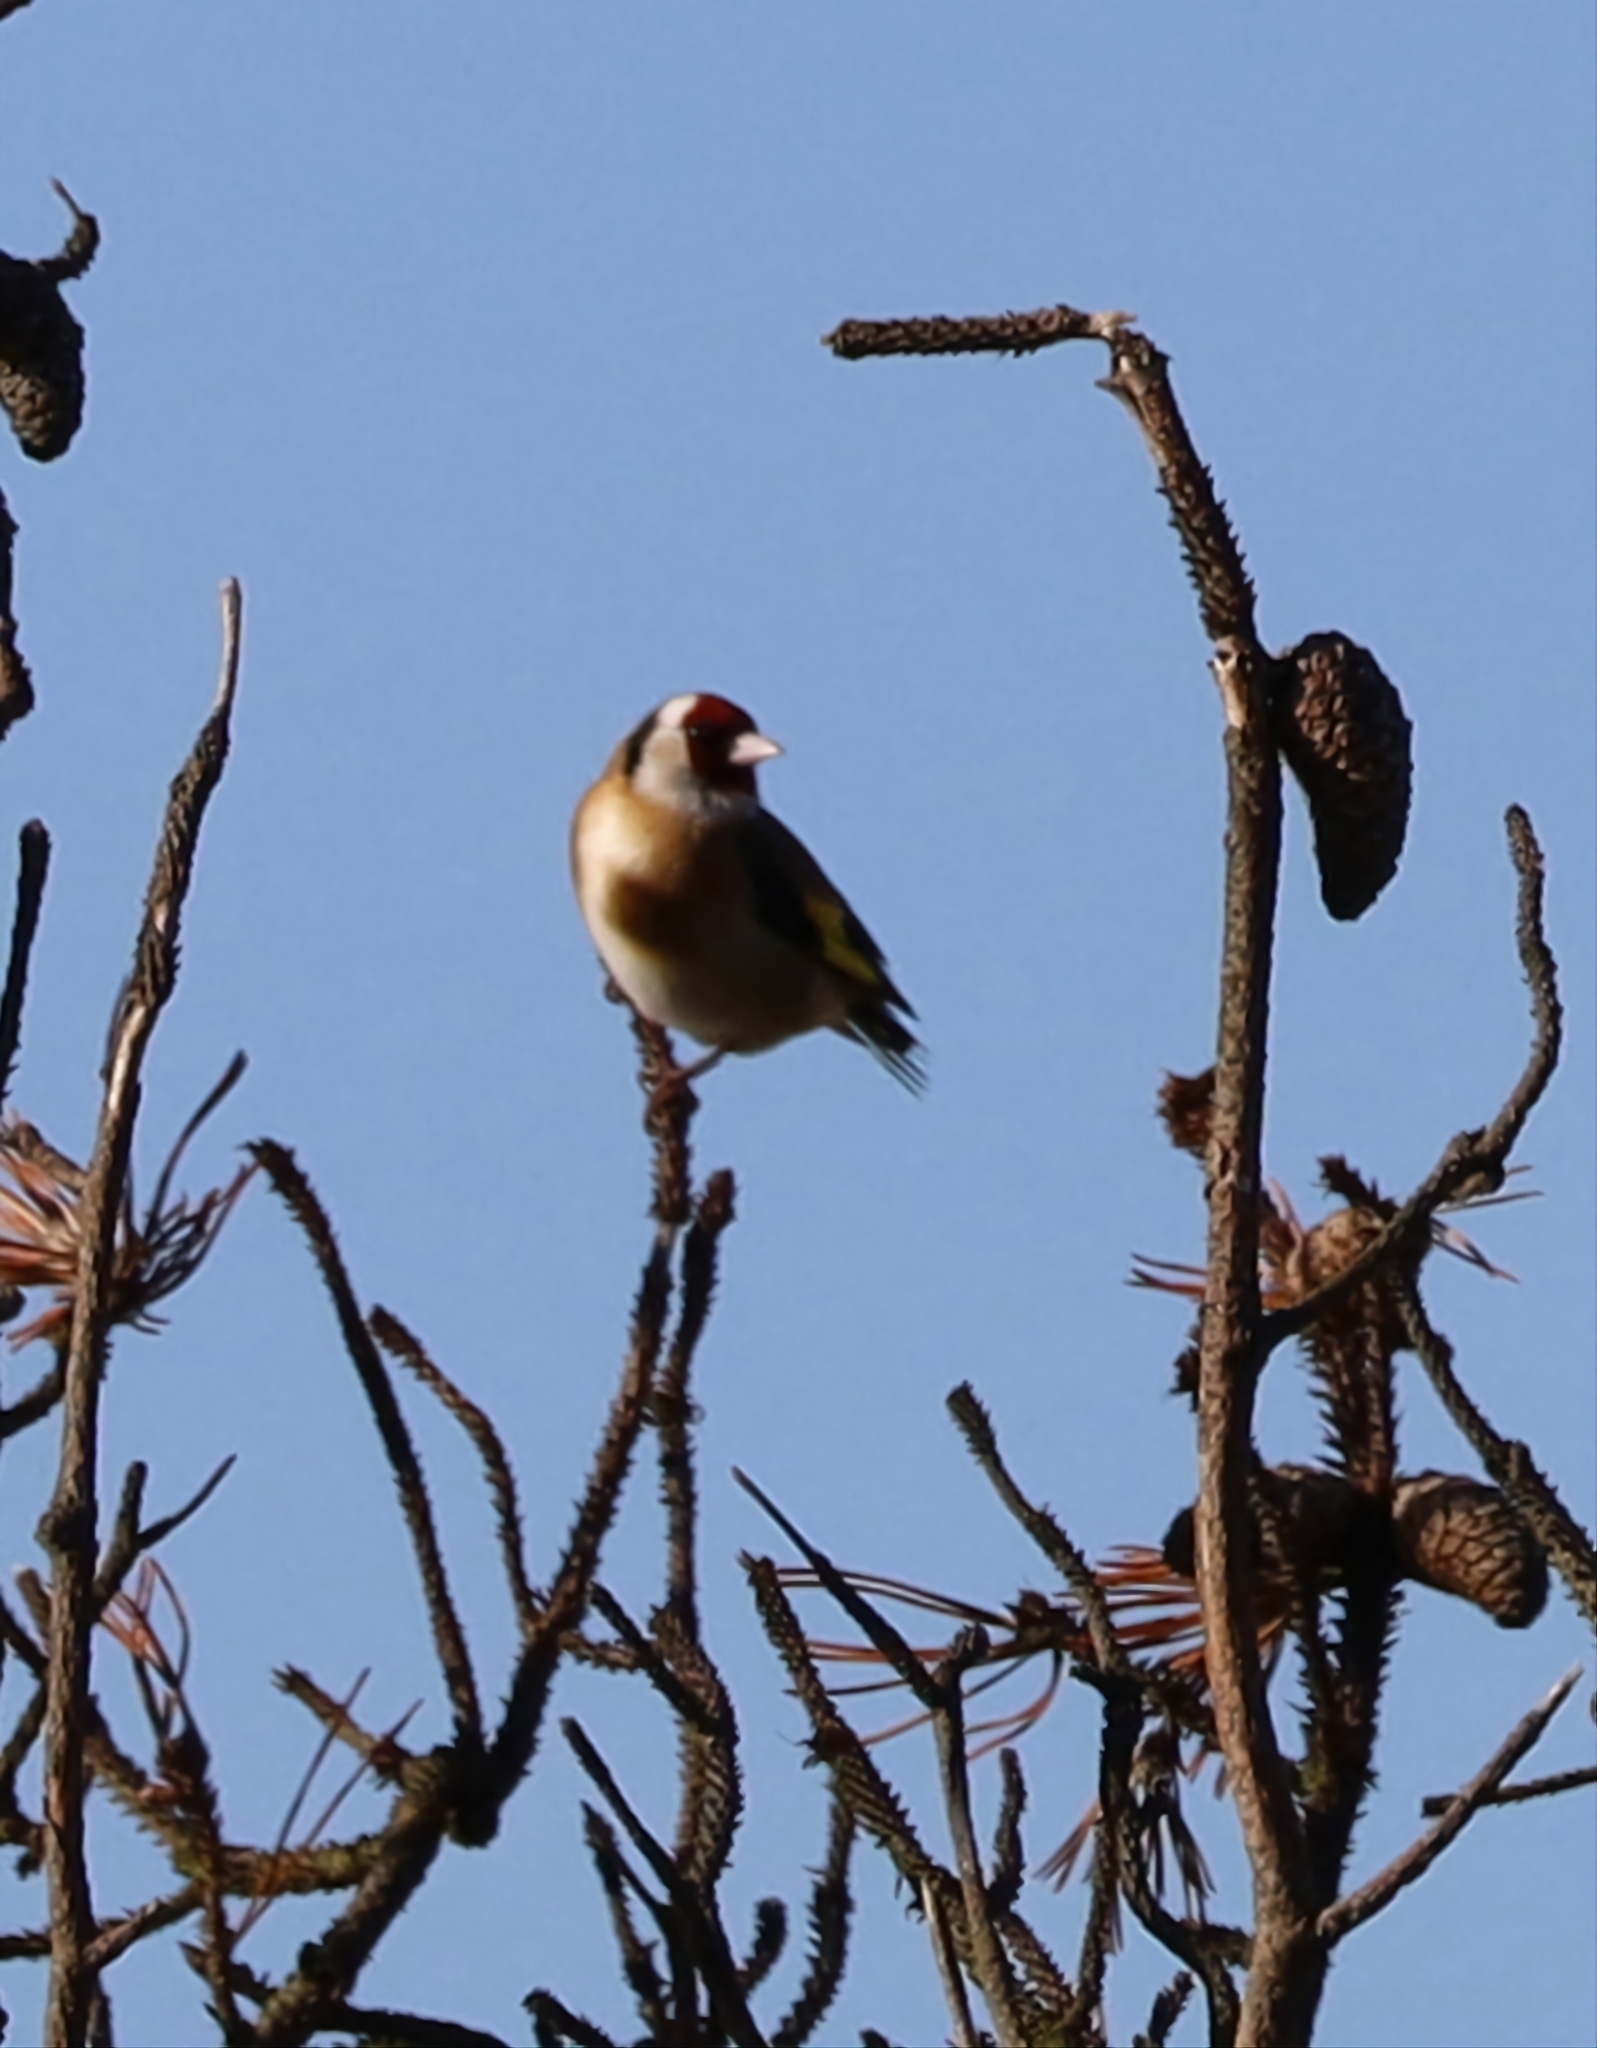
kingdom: Animalia
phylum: Chordata
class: Aves
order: Passeriformes
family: Fringillidae
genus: Carduelis
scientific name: Carduelis carduelis
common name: European goldfinch
